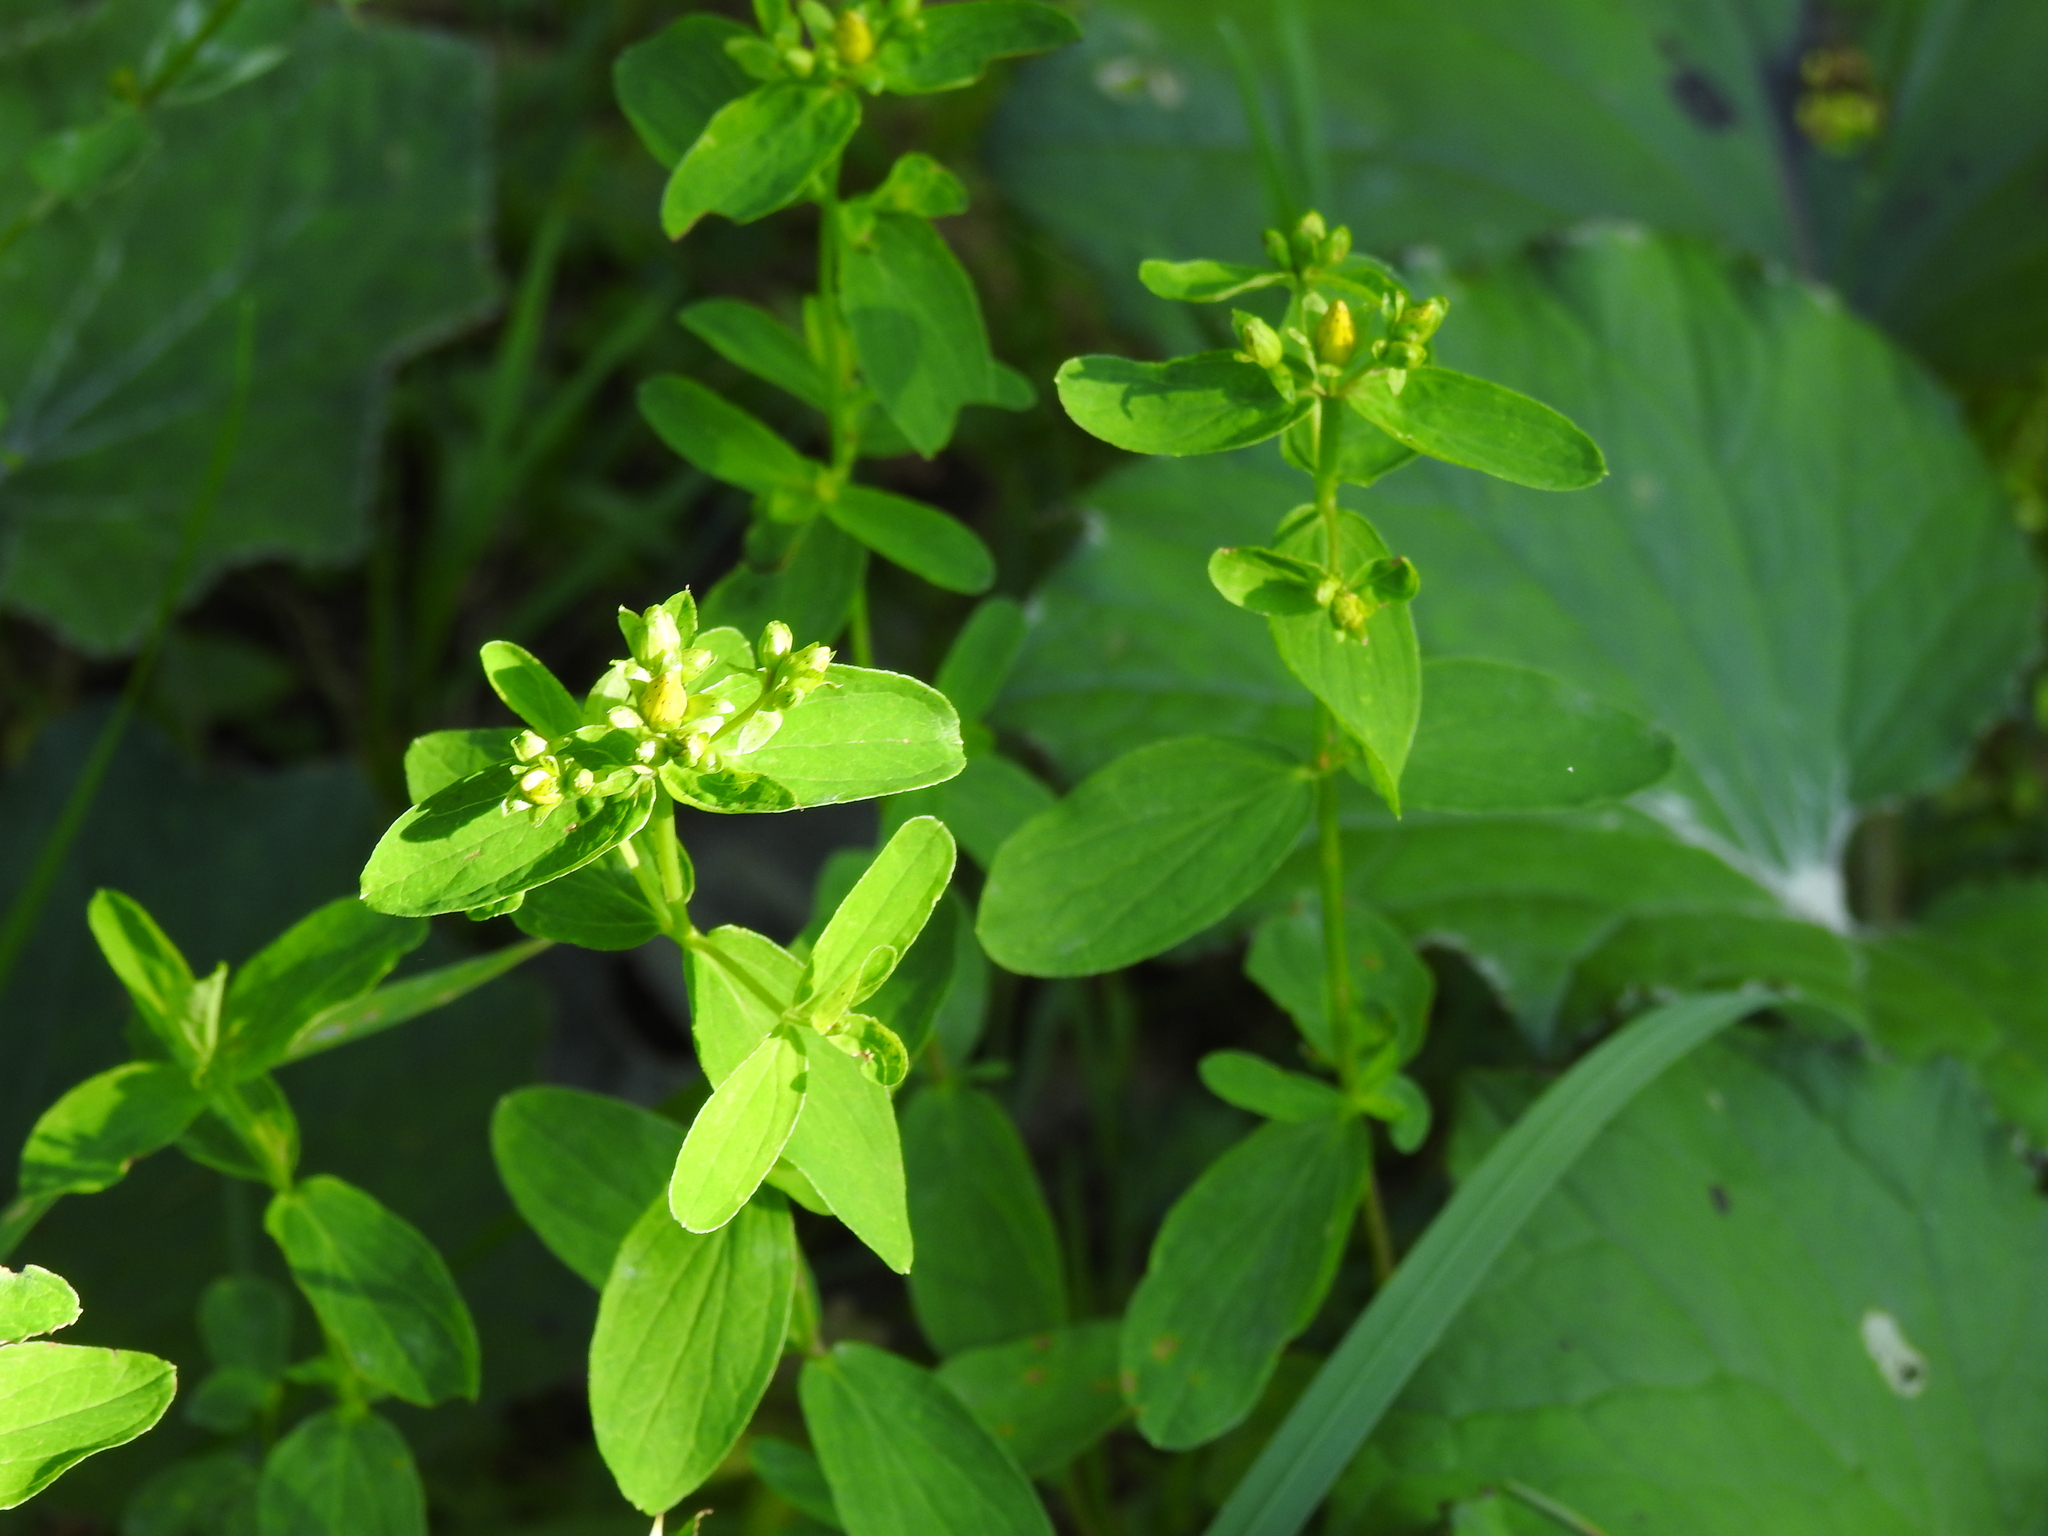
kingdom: Plantae
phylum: Tracheophyta
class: Magnoliopsida
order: Malpighiales
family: Hypericaceae
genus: Hypericum
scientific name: Hypericum maculatum
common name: Imperforate st. john's-wort
